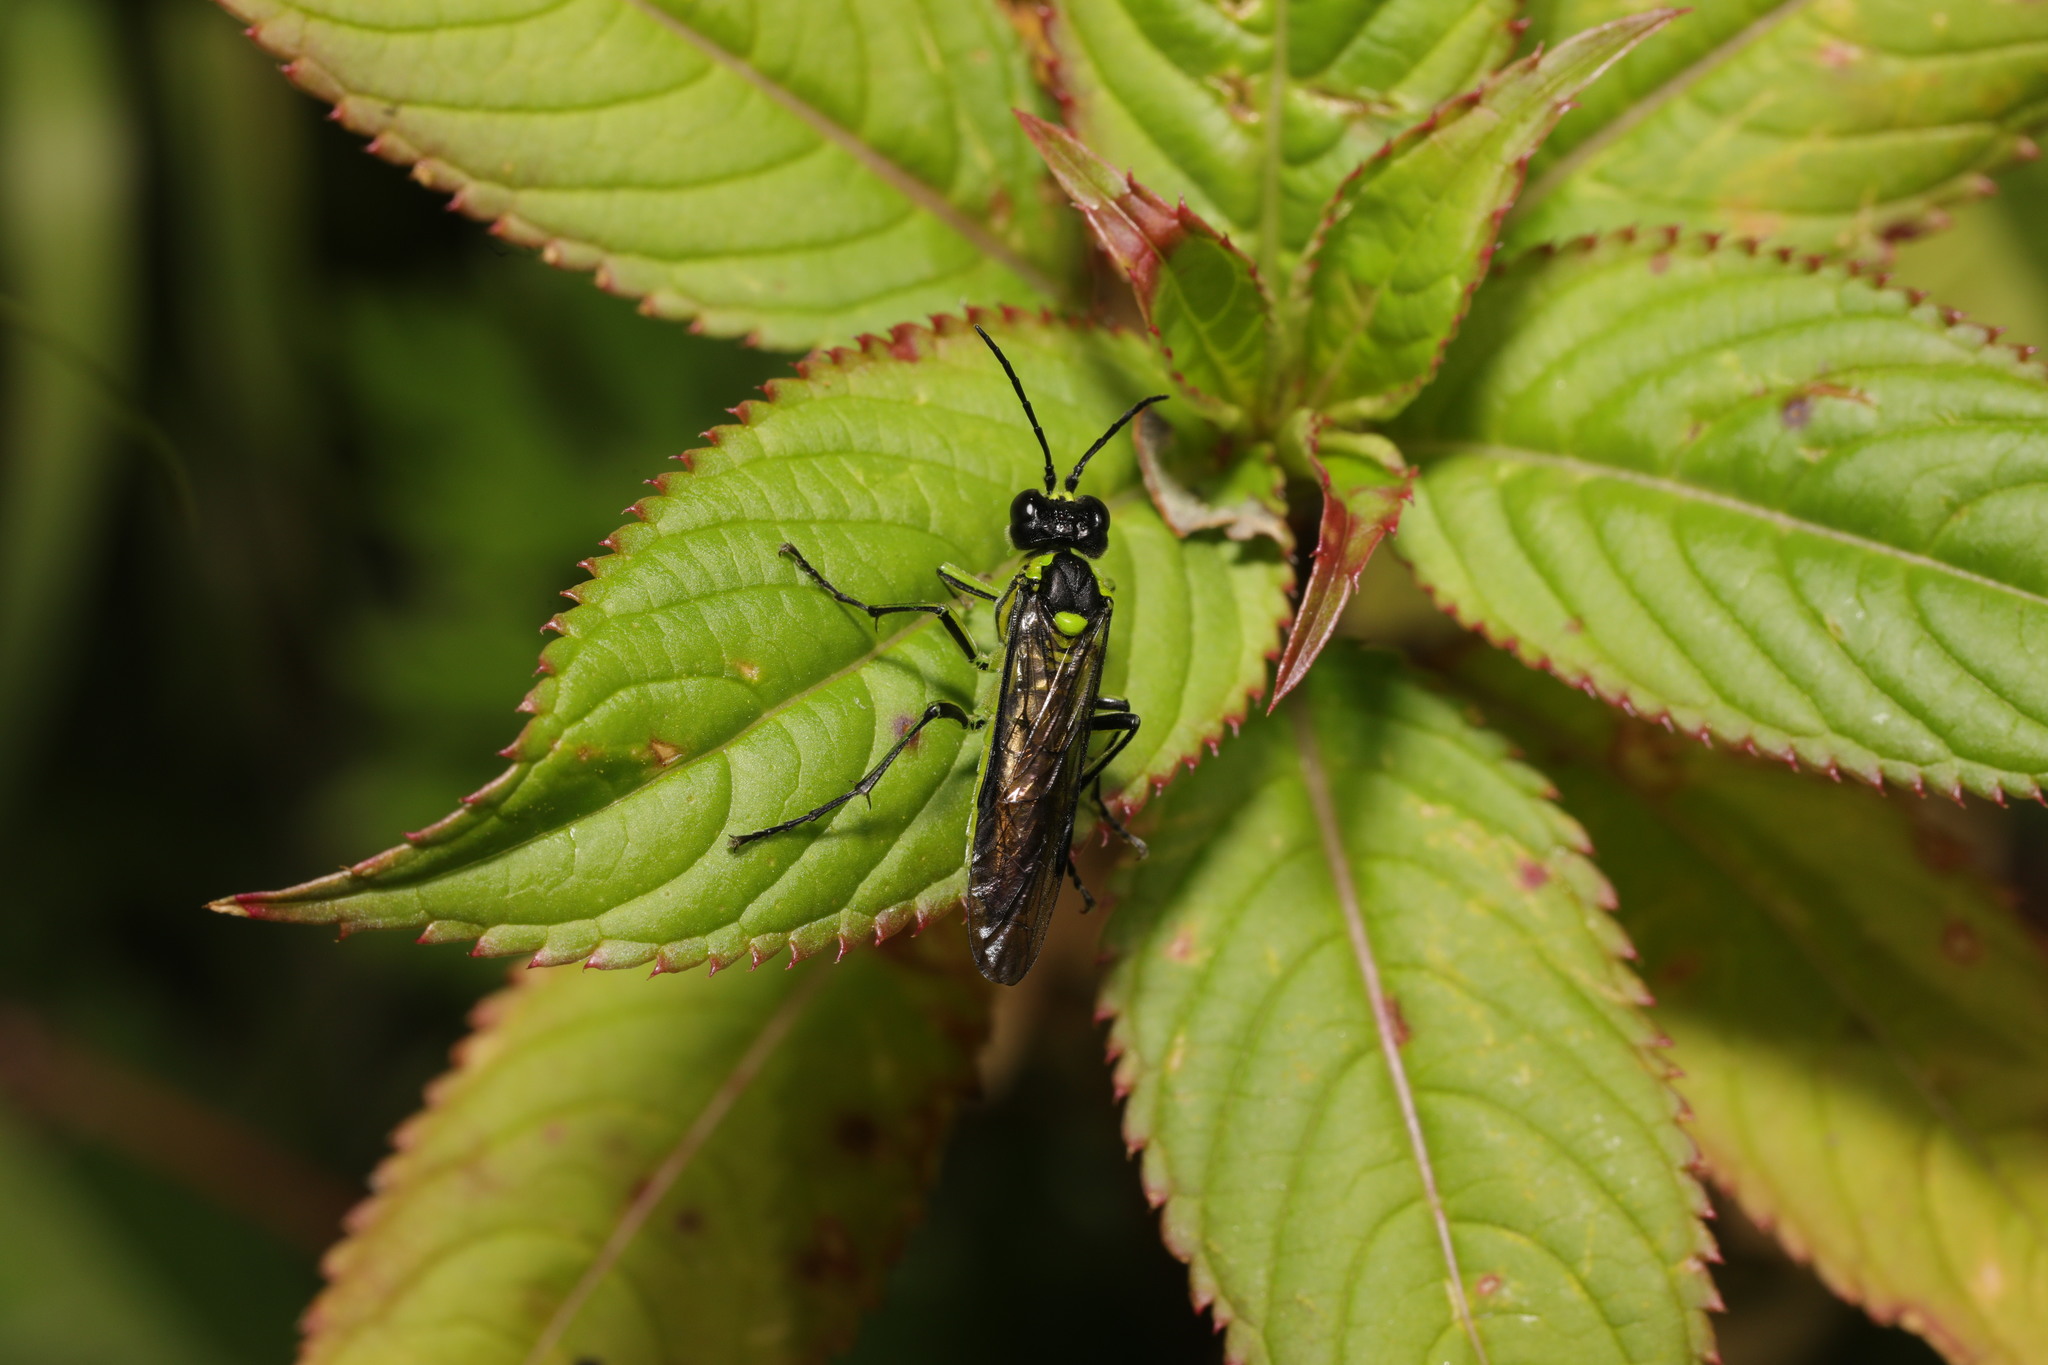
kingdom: Animalia
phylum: Arthropoda
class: Insecta
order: Hymenoptera
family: Tenthredinidae
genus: Tenthredo
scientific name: Tenthredo mesomela
